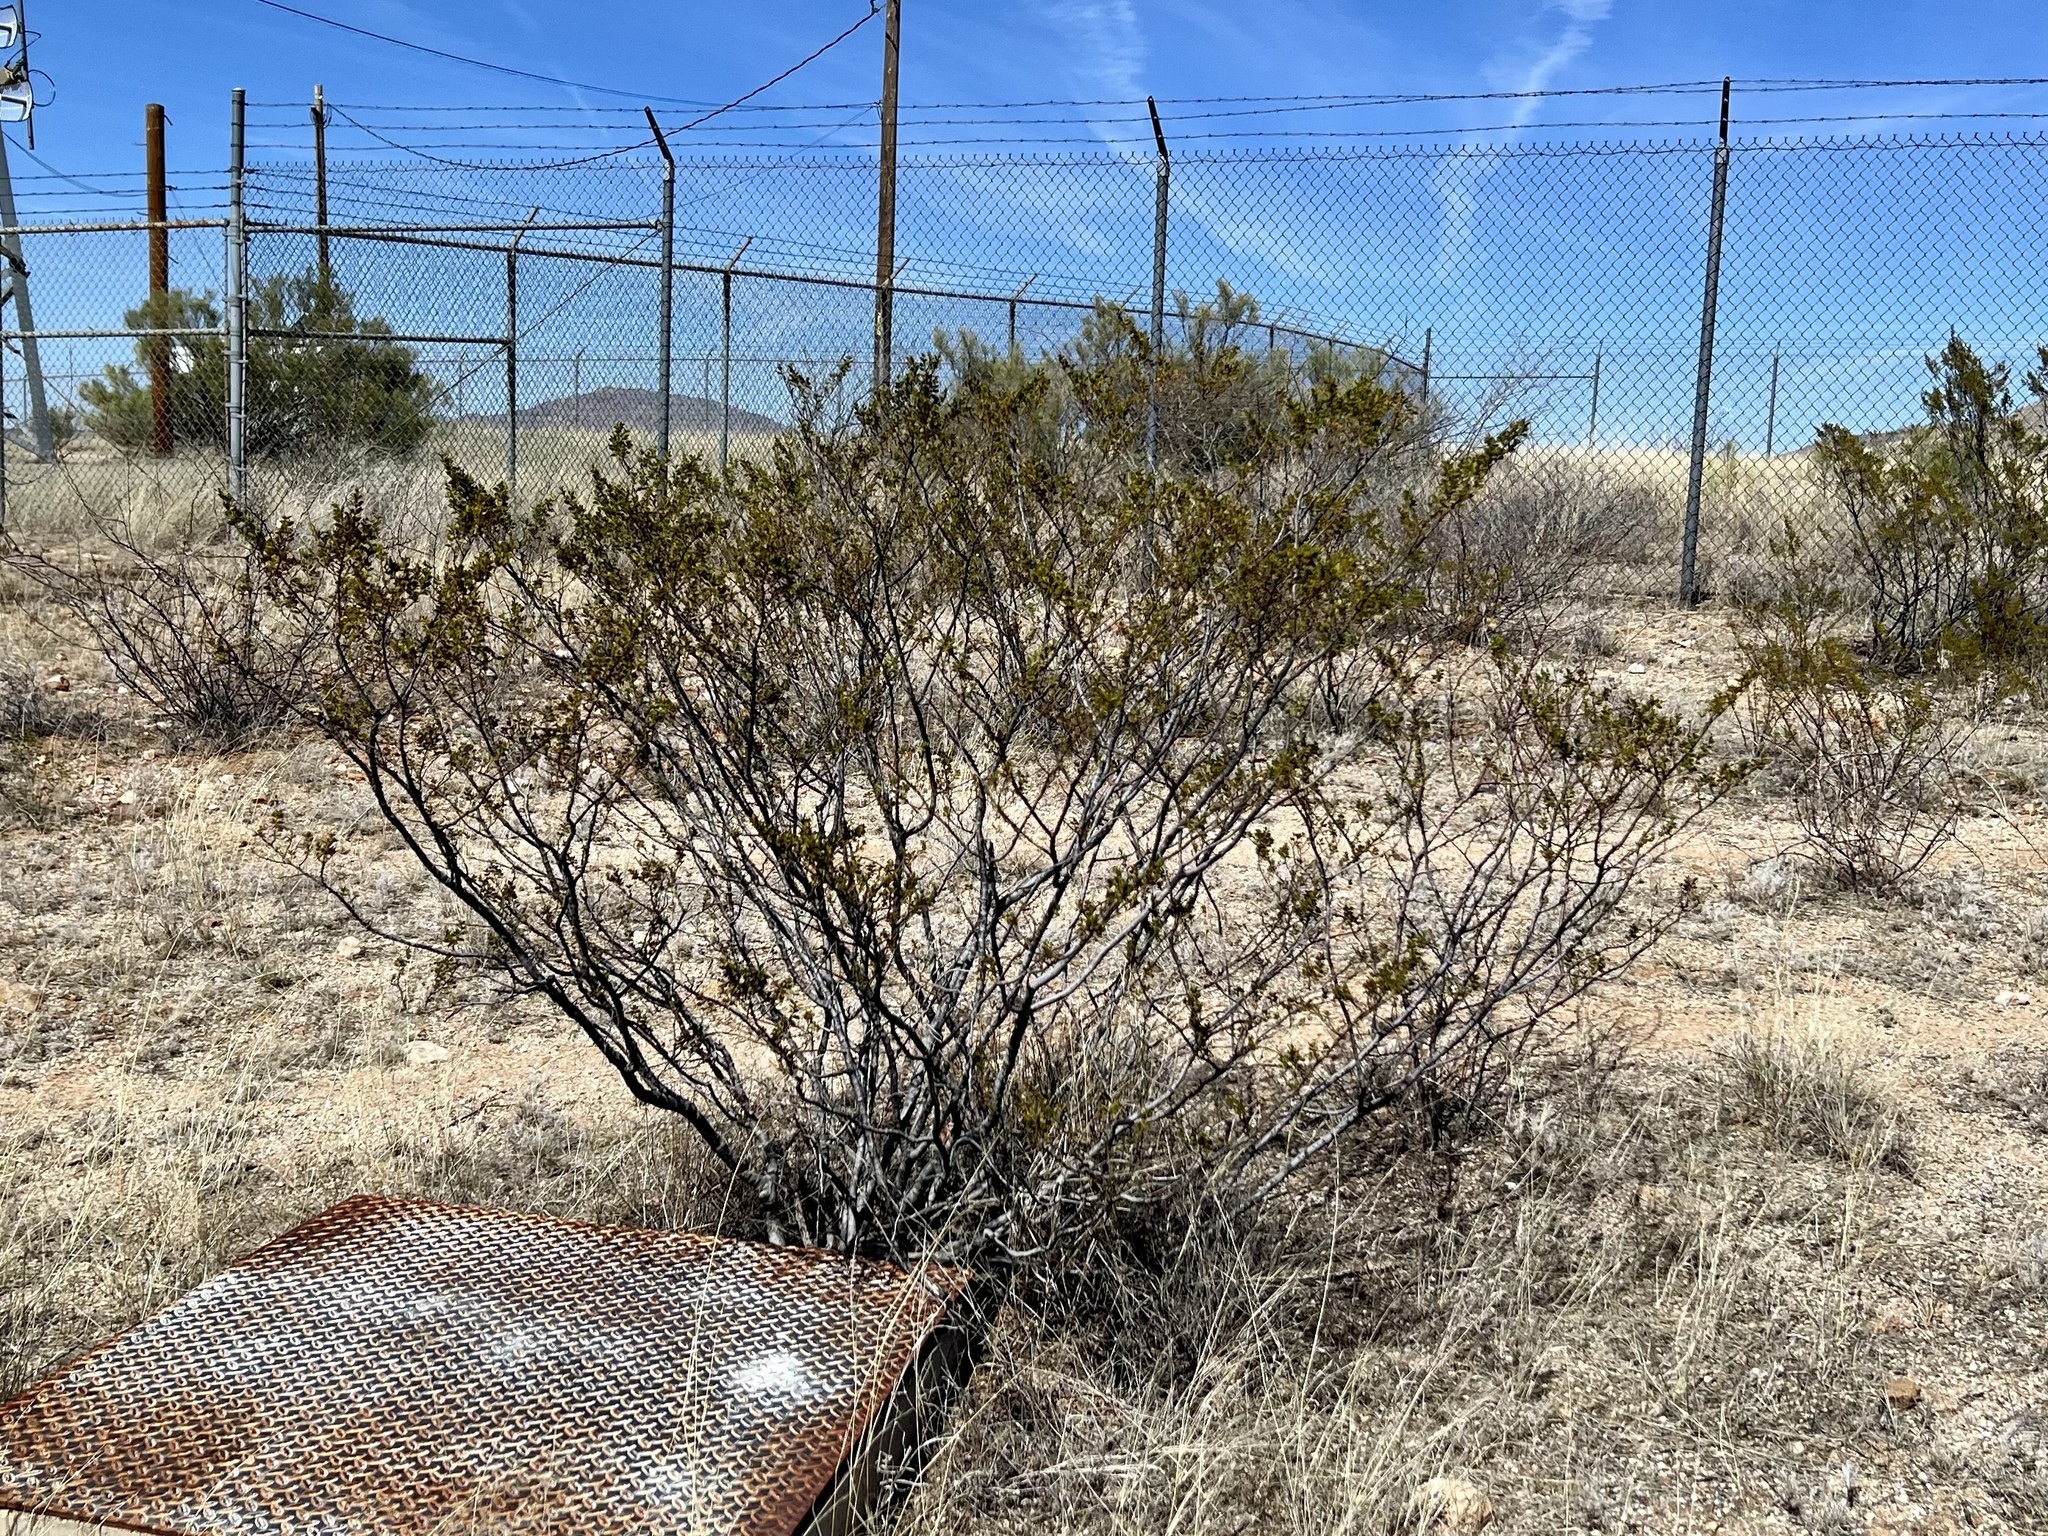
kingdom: Plantae
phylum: Tracheophyta
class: Magnoliopsida
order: Zygophyllales
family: Zygophyllaceae
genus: Larrea
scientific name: Larrea tridentata
